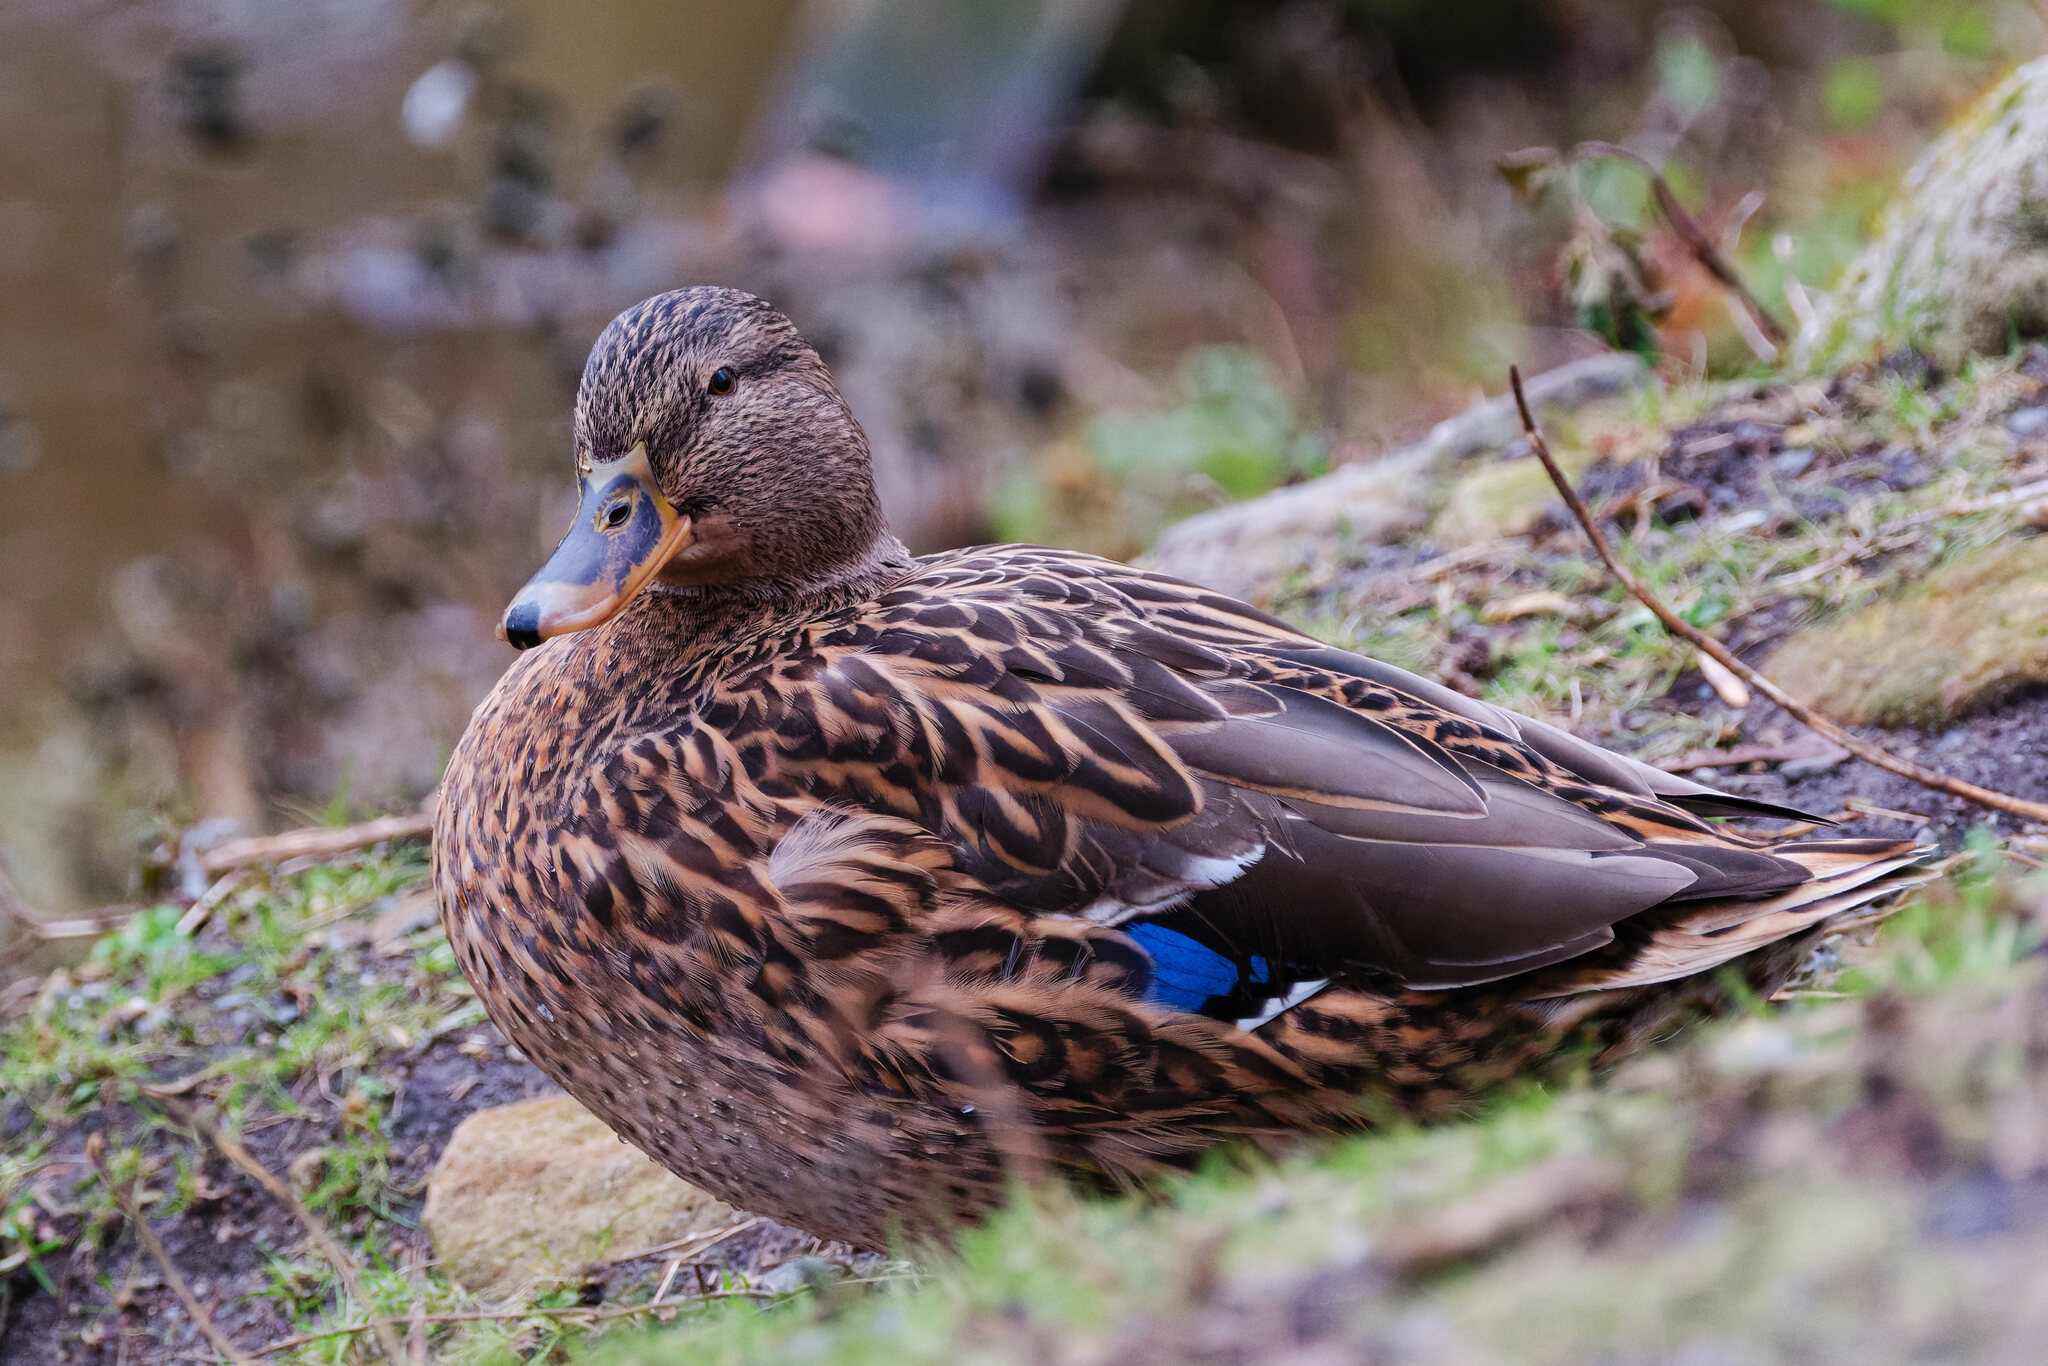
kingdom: Animalia
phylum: Chordata
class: Aves
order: Anseriformes
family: Anatidae
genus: Anas
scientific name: Anas platyrhynchos
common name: Mallard
